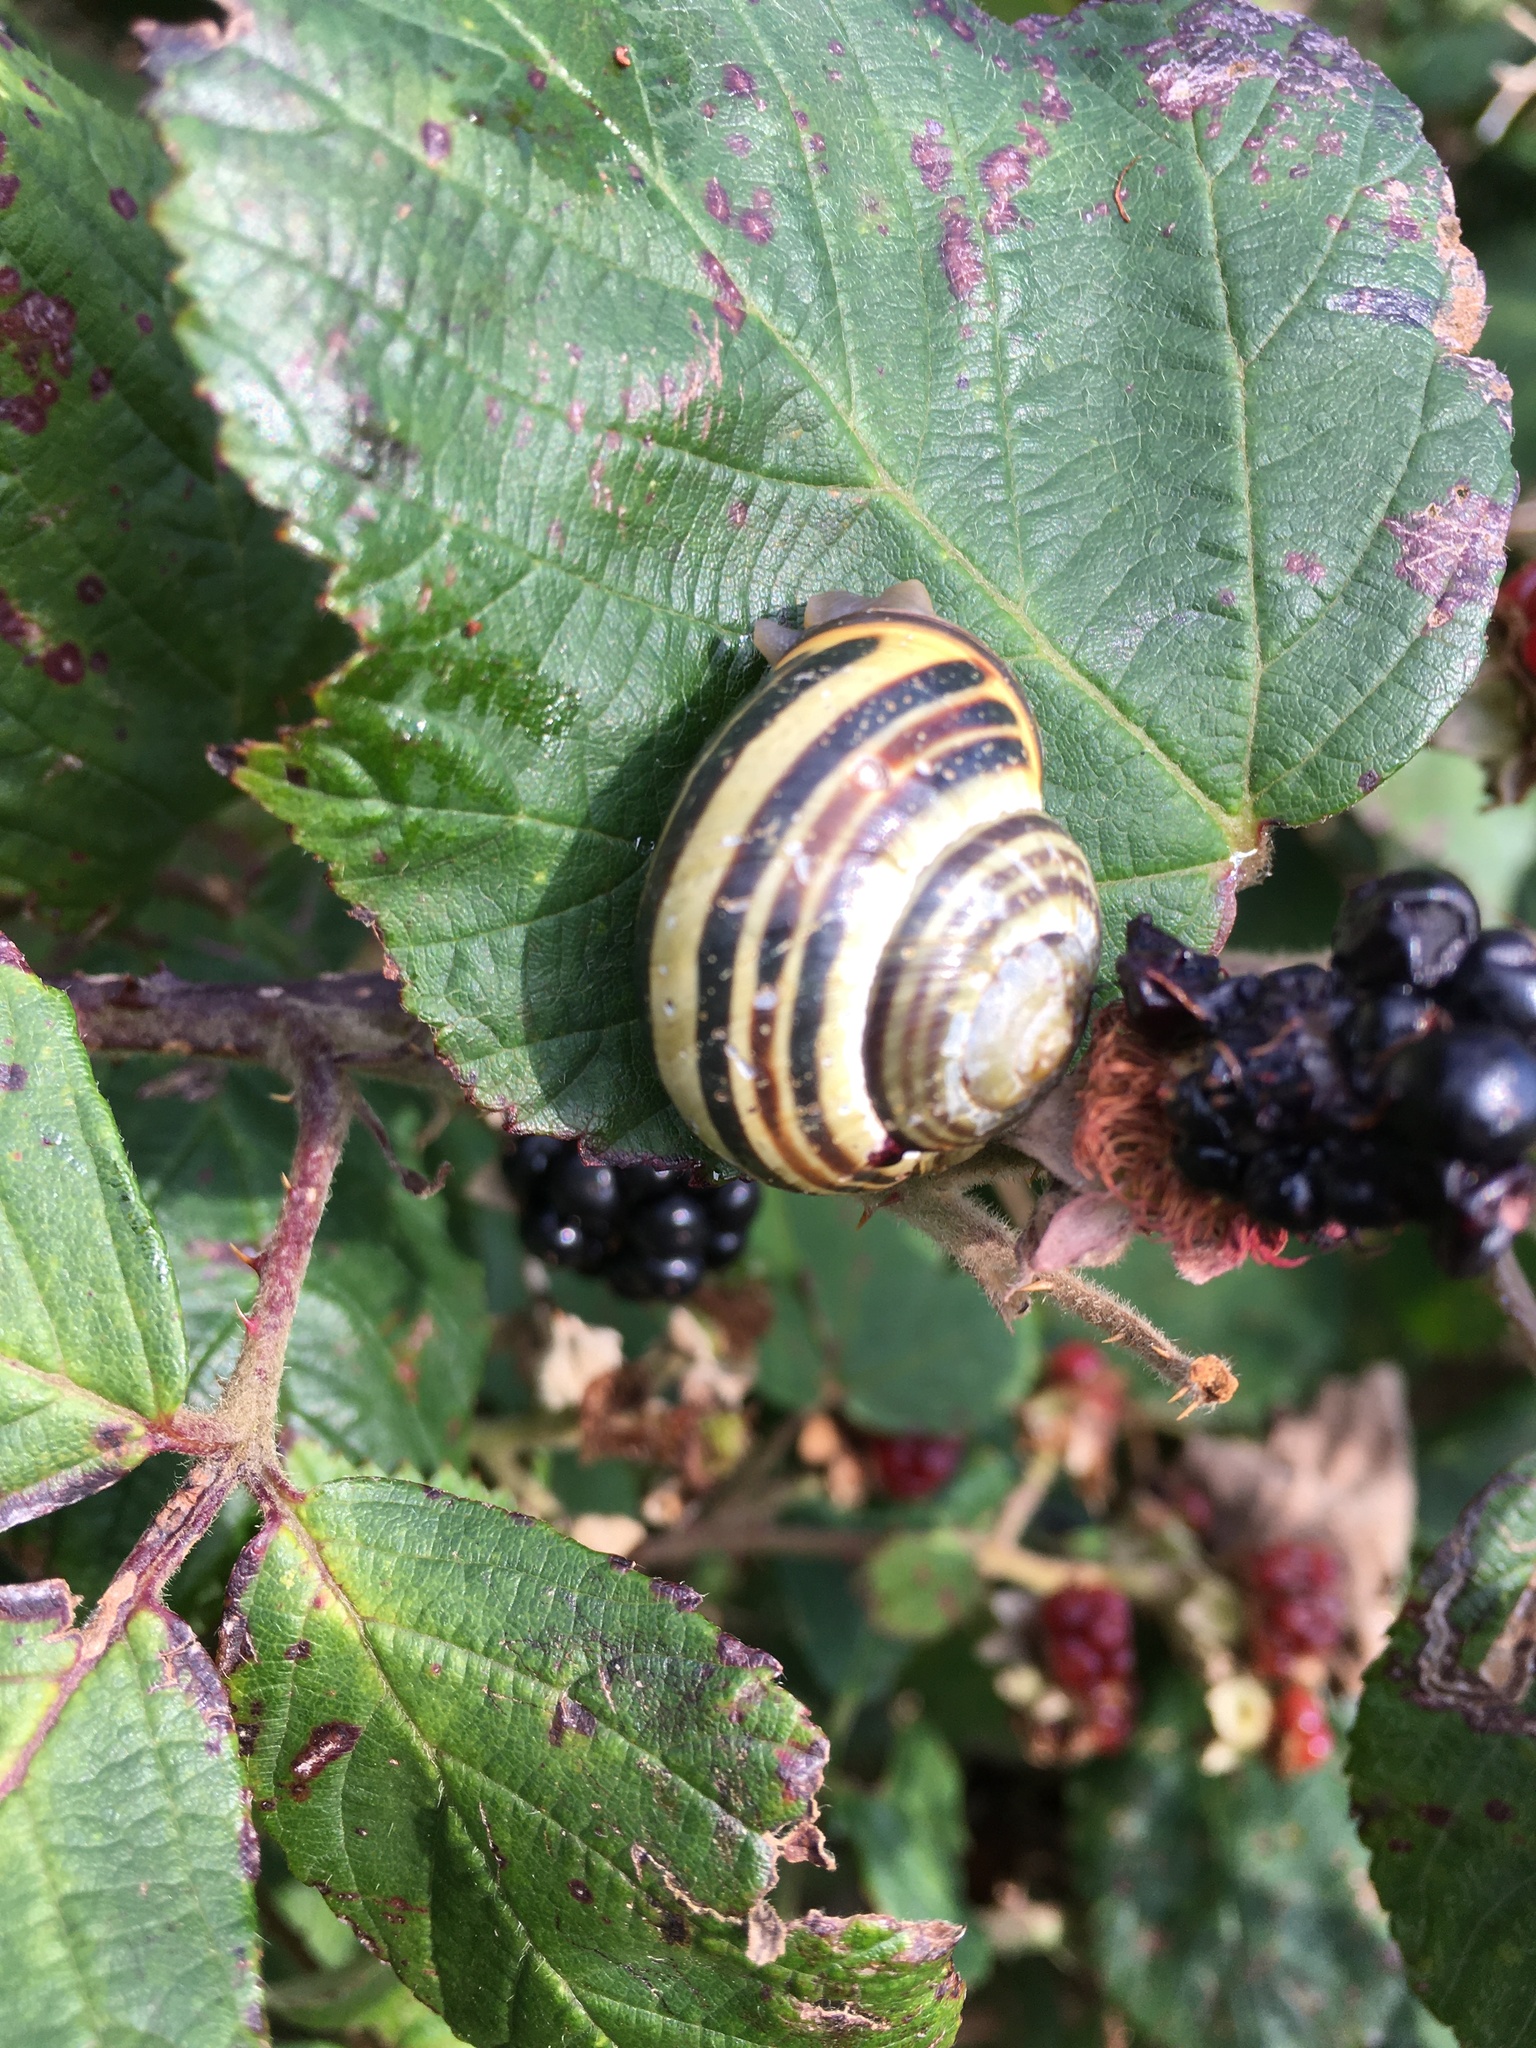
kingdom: Animalia
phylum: Mollusca
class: Gastropoda
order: Stylommatophora
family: Helicidae
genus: Cepaea
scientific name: Cepaea nemoralis
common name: Grovesnail
